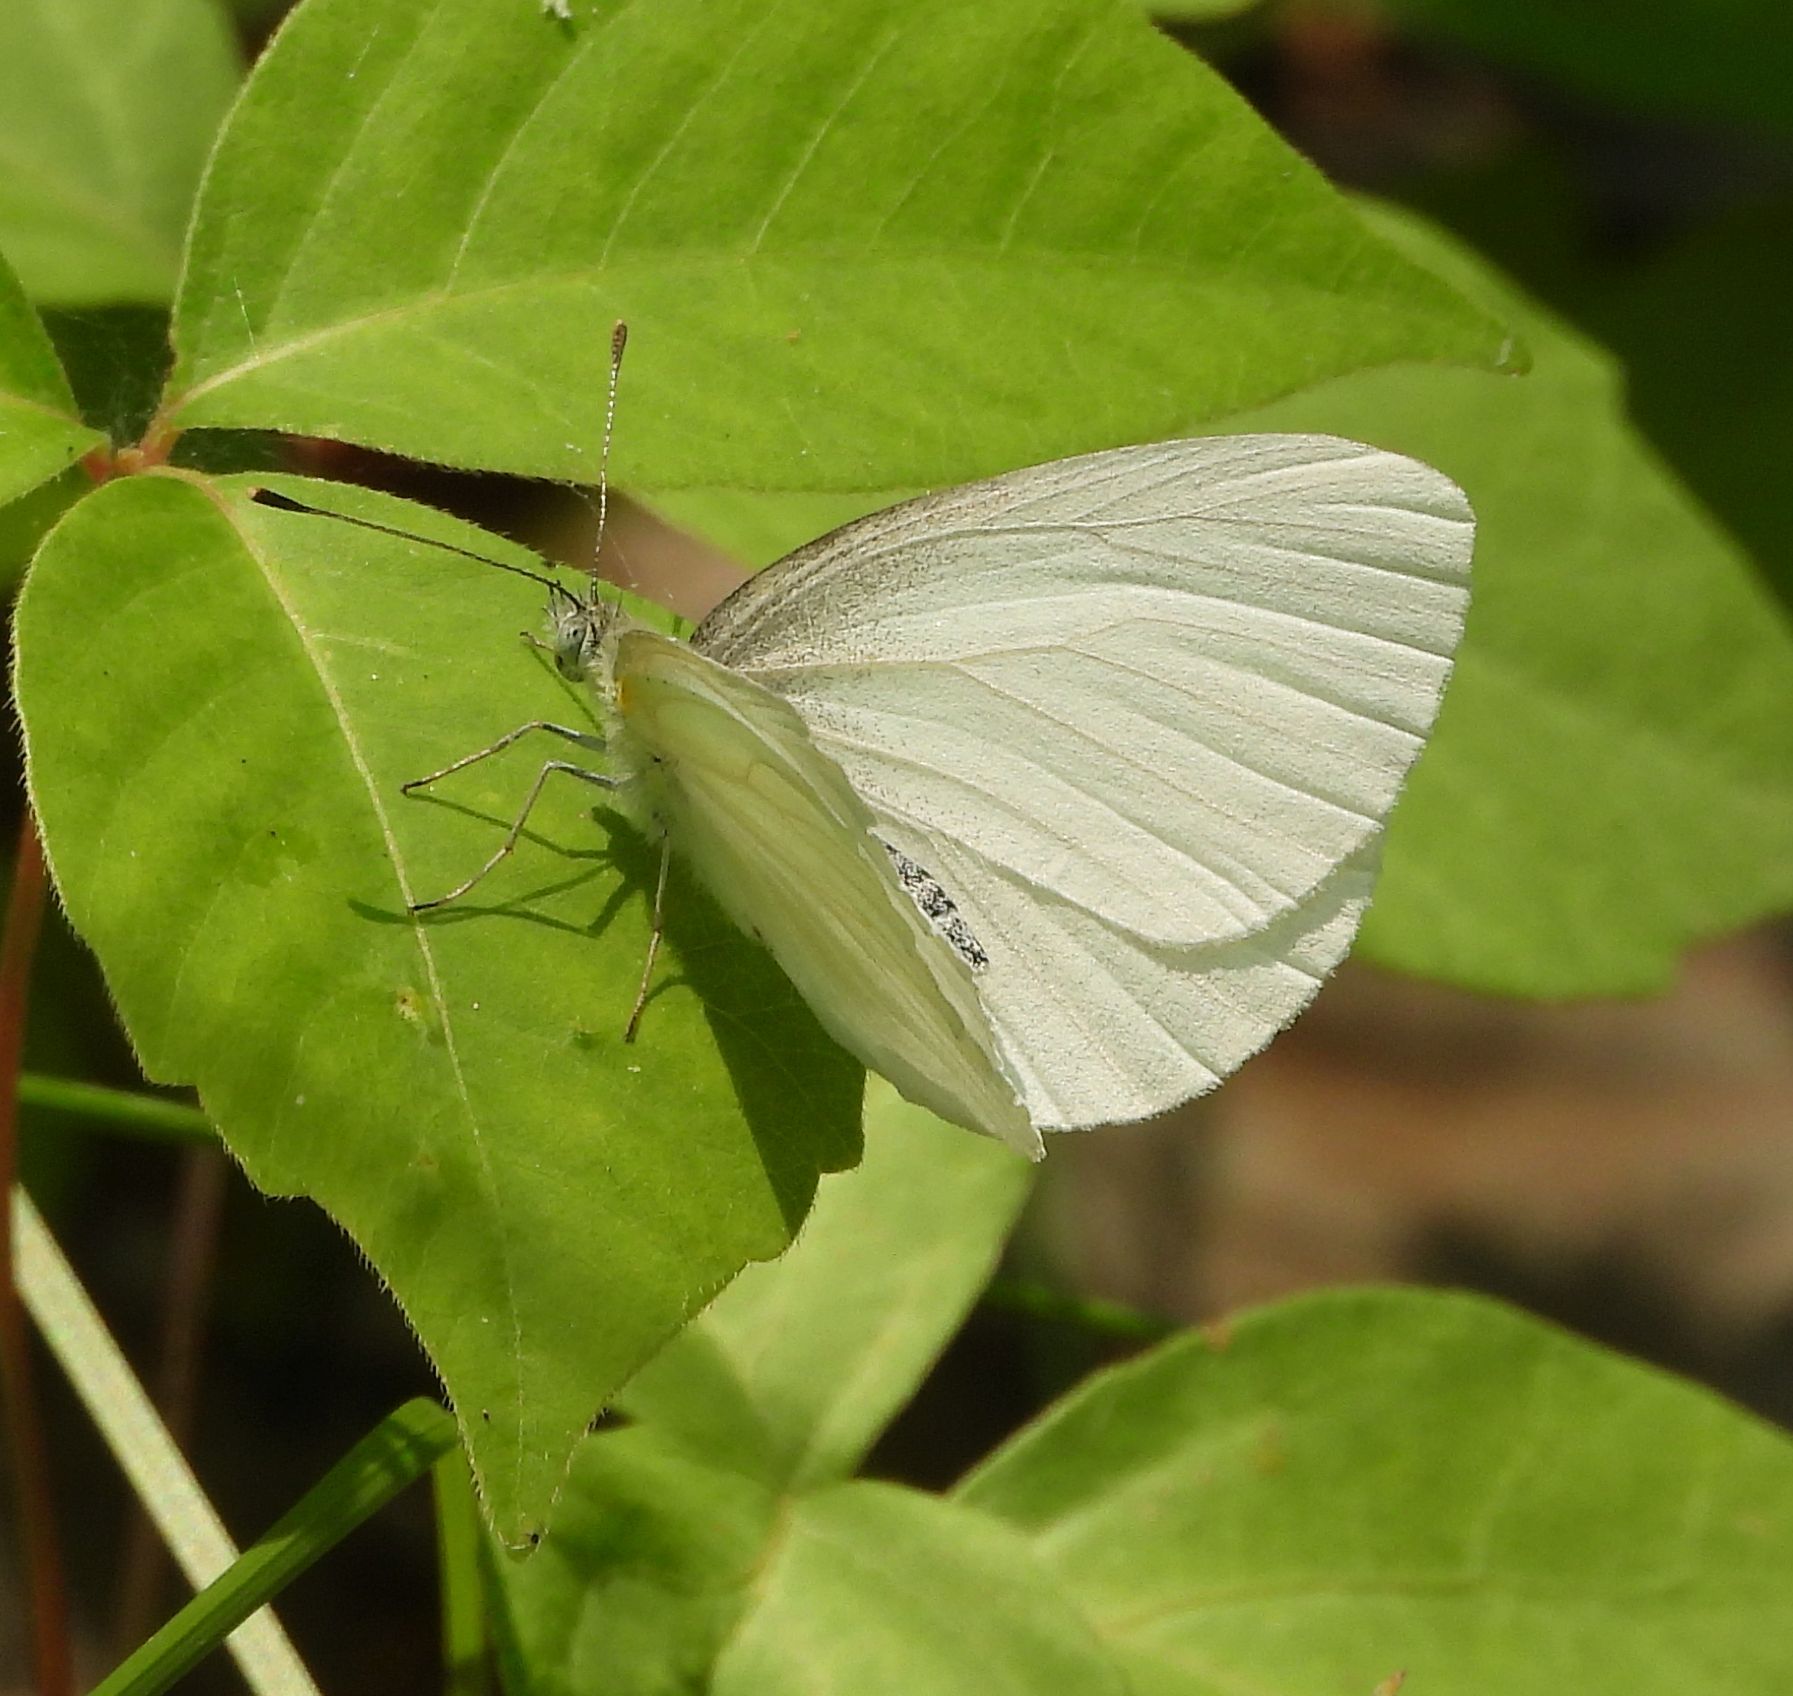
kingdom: Animalia
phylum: Arthropoda
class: Insecta
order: Lepidoptera
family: Pieridae
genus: Pieris
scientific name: Pieris oleracea
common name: Mustard white
